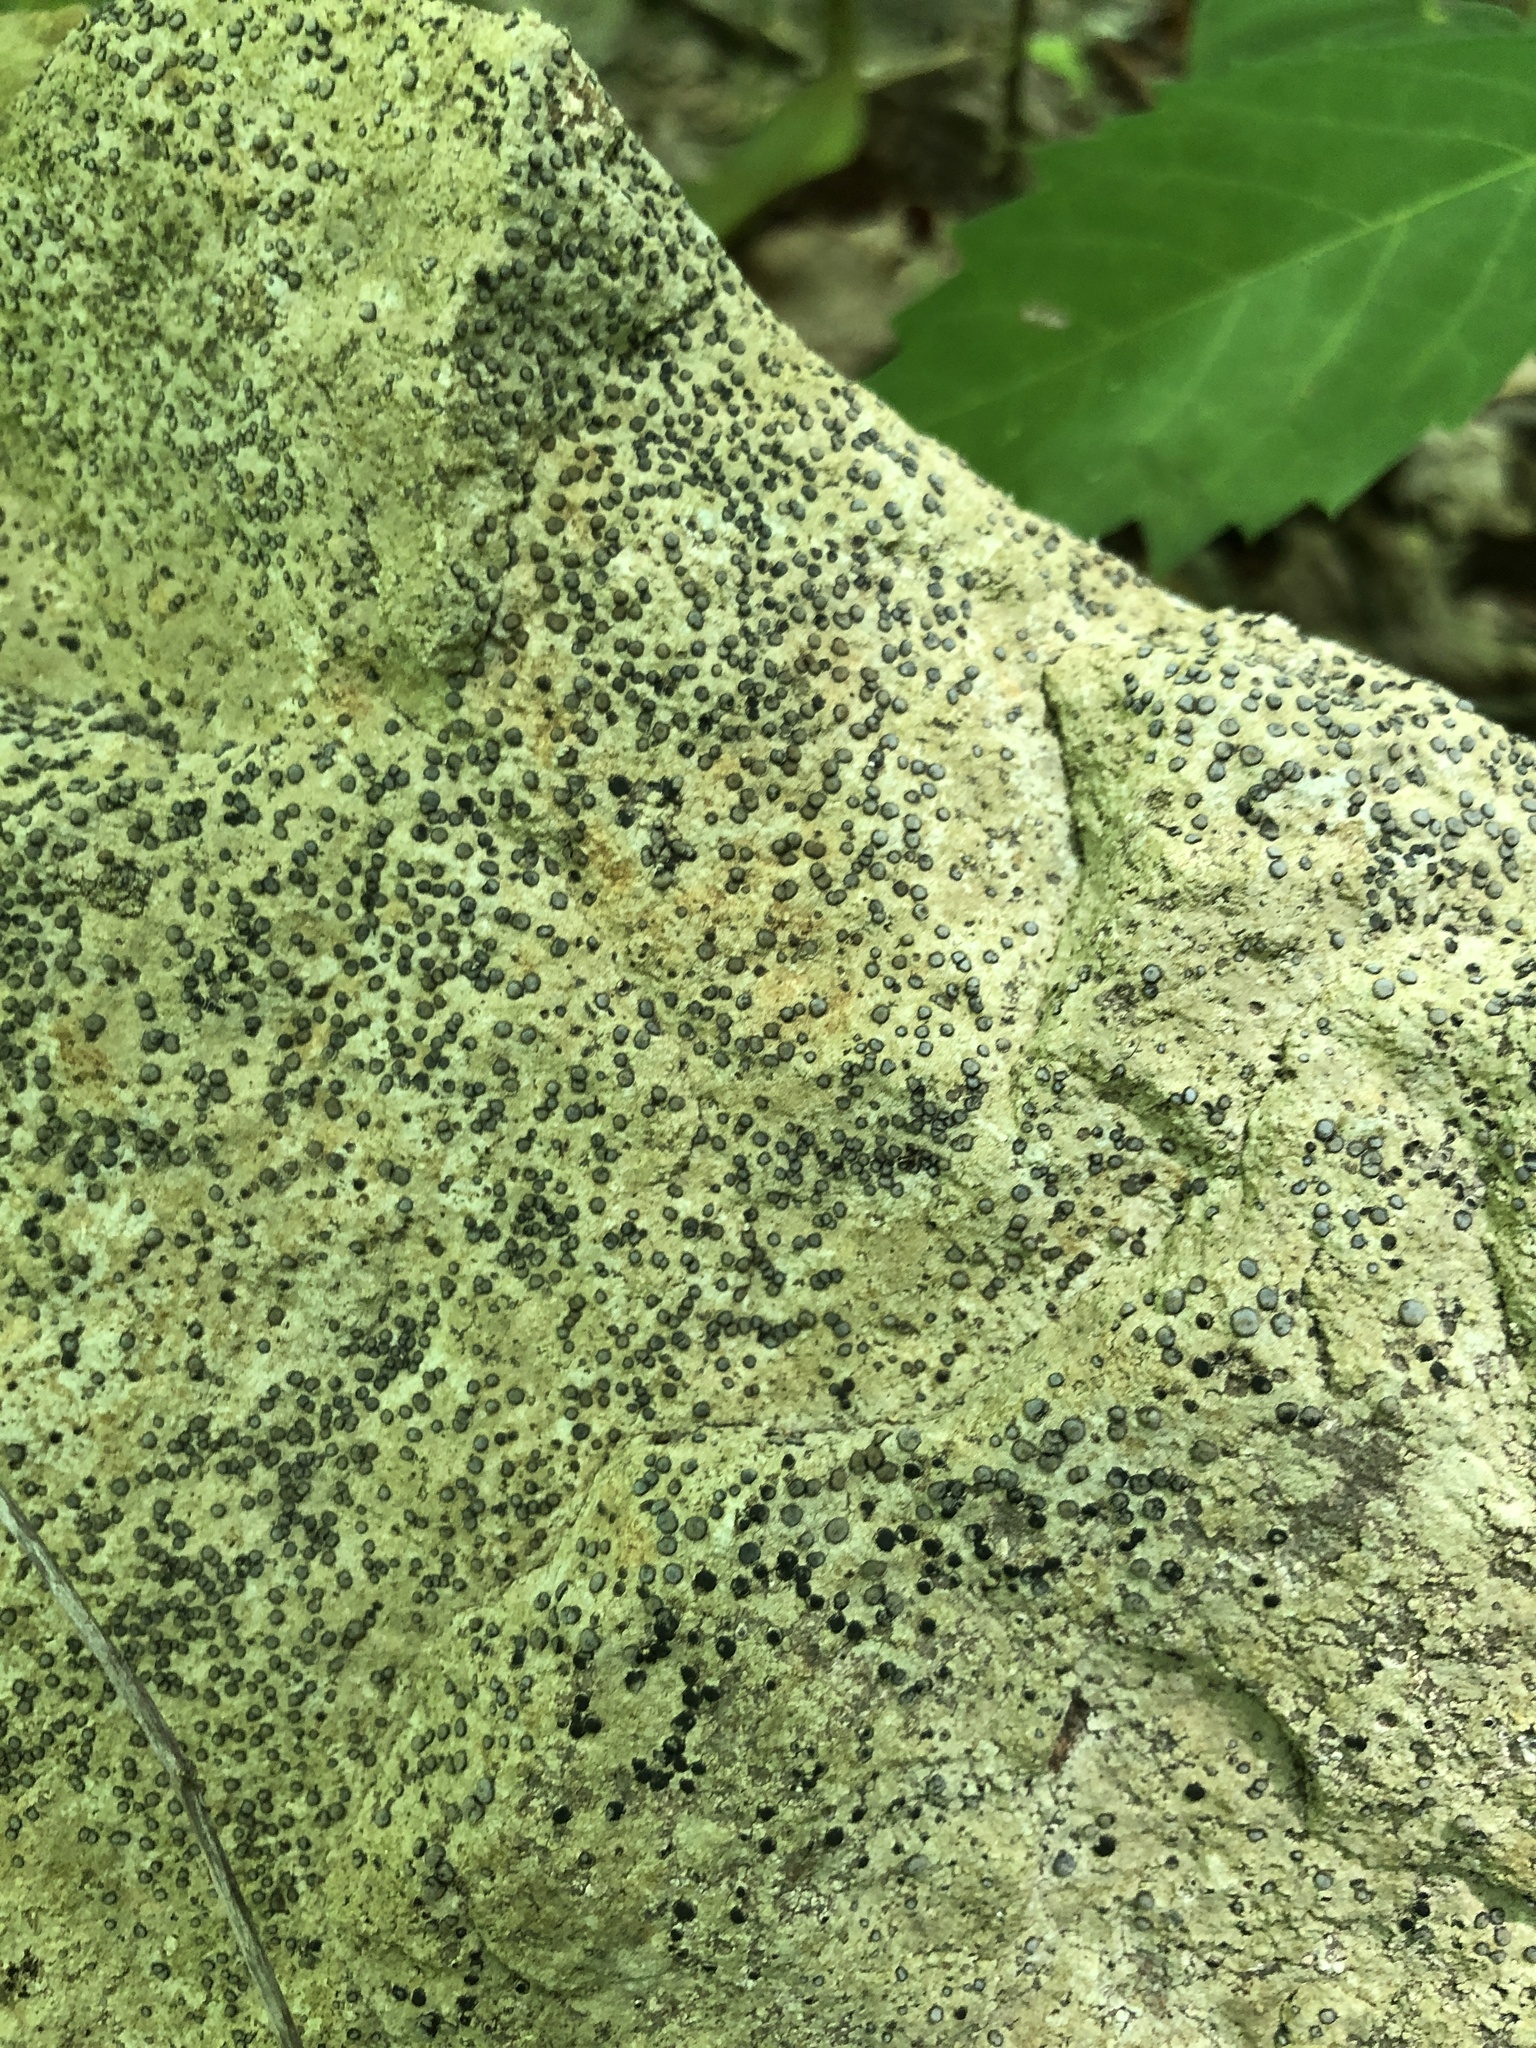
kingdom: Fungi
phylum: Ascomycota
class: Lecanoromycetes
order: Lecideales
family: Lecideaceae
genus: Porpidia
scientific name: Porpidia albocaerulescens
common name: Smokey-eyed boulder lichen
